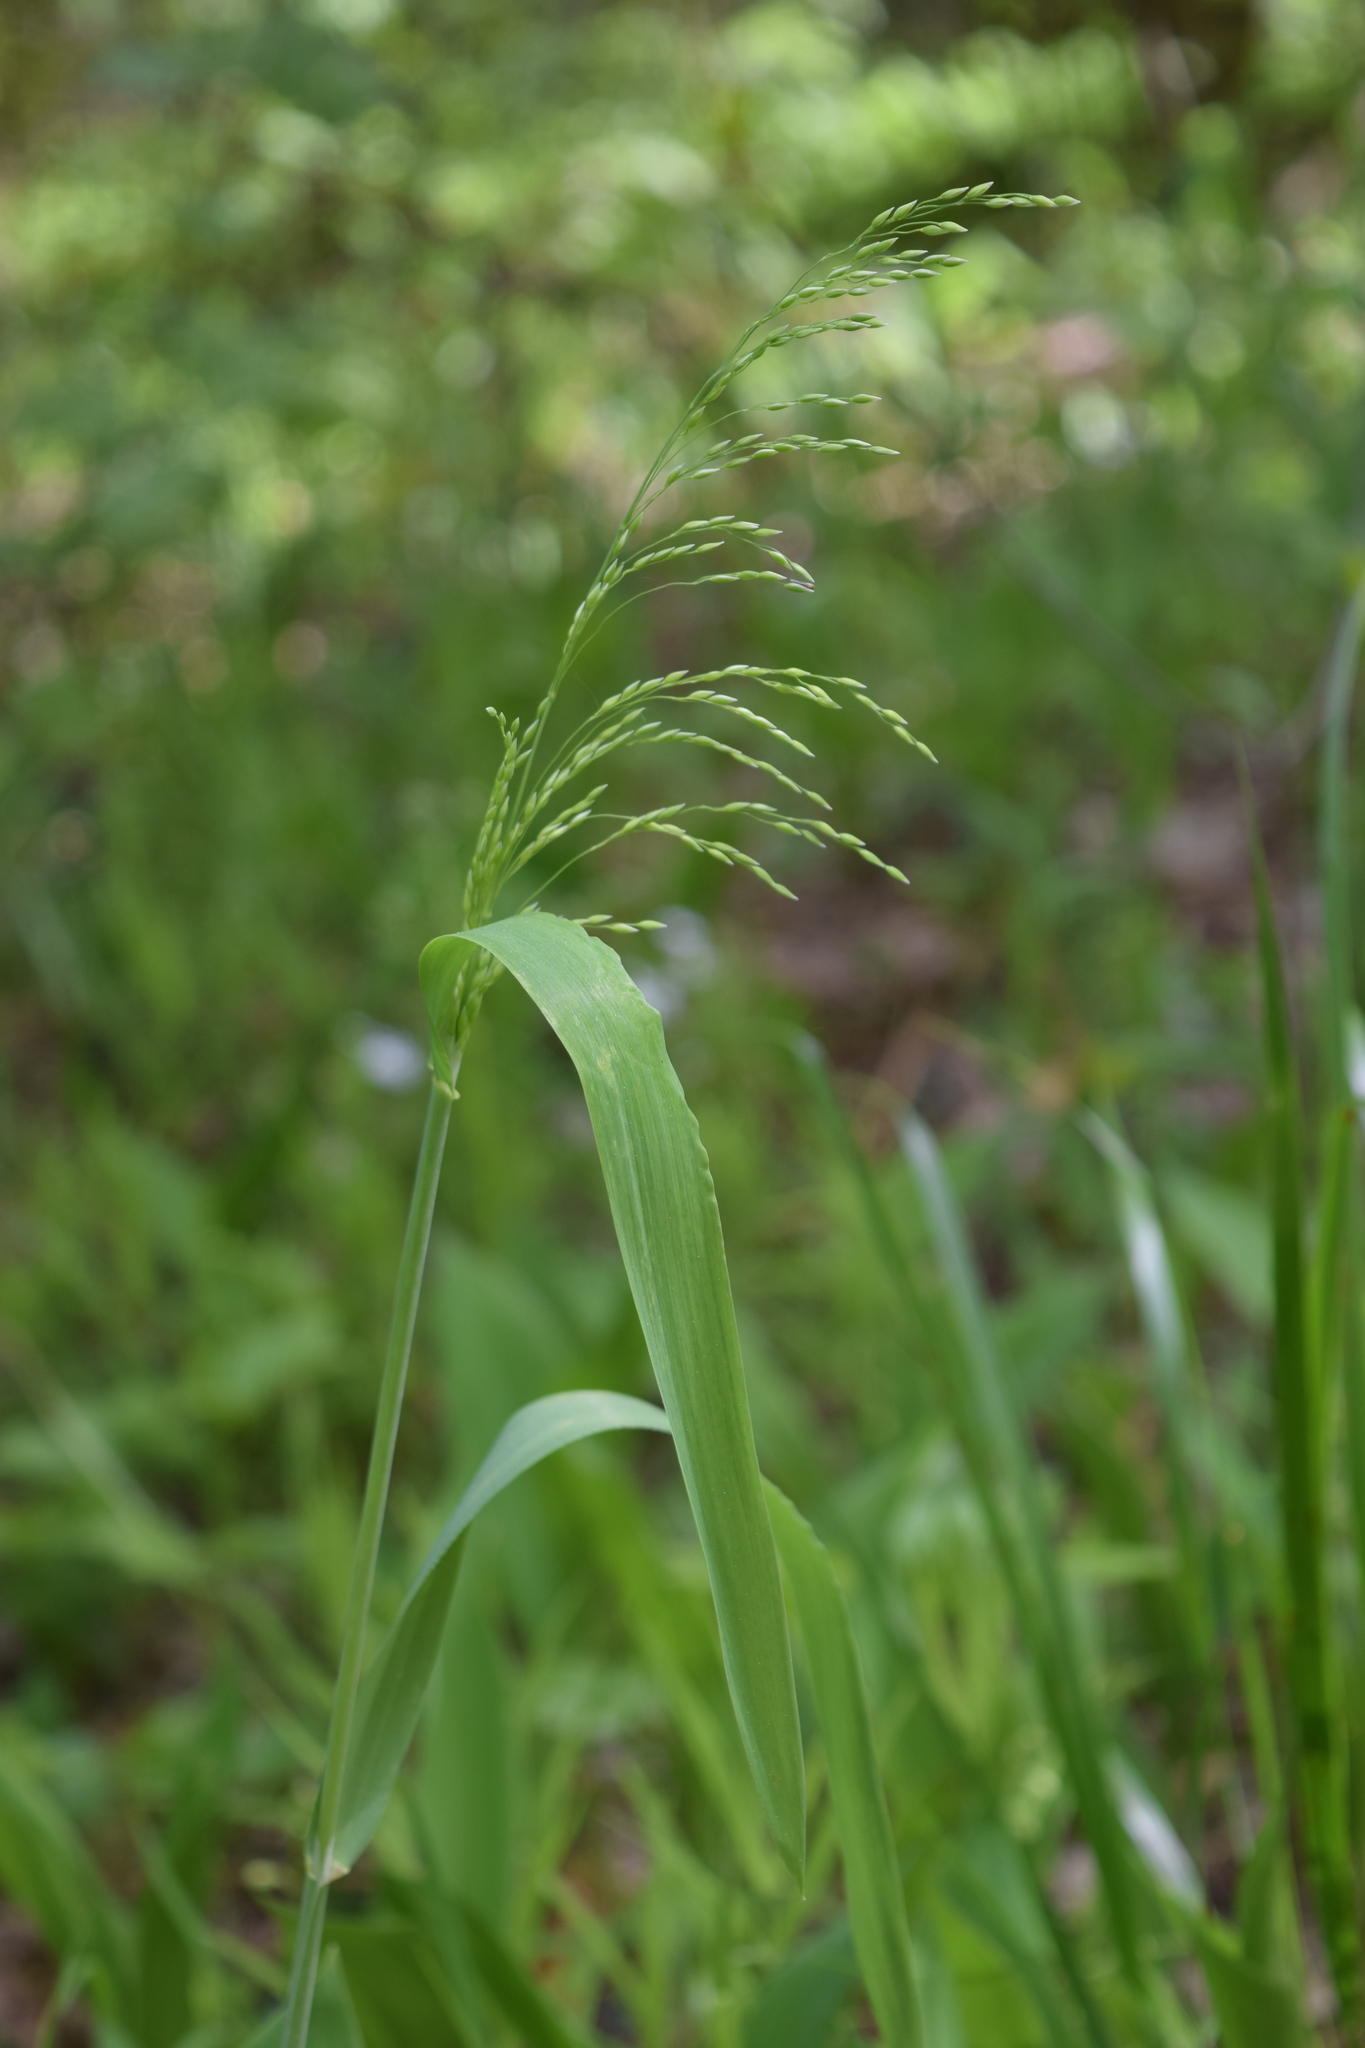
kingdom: Plantae
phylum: Tracheophyta
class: Liliopsida
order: Poales
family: Poaceae
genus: Milium
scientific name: Milium effusum
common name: Wood millet
